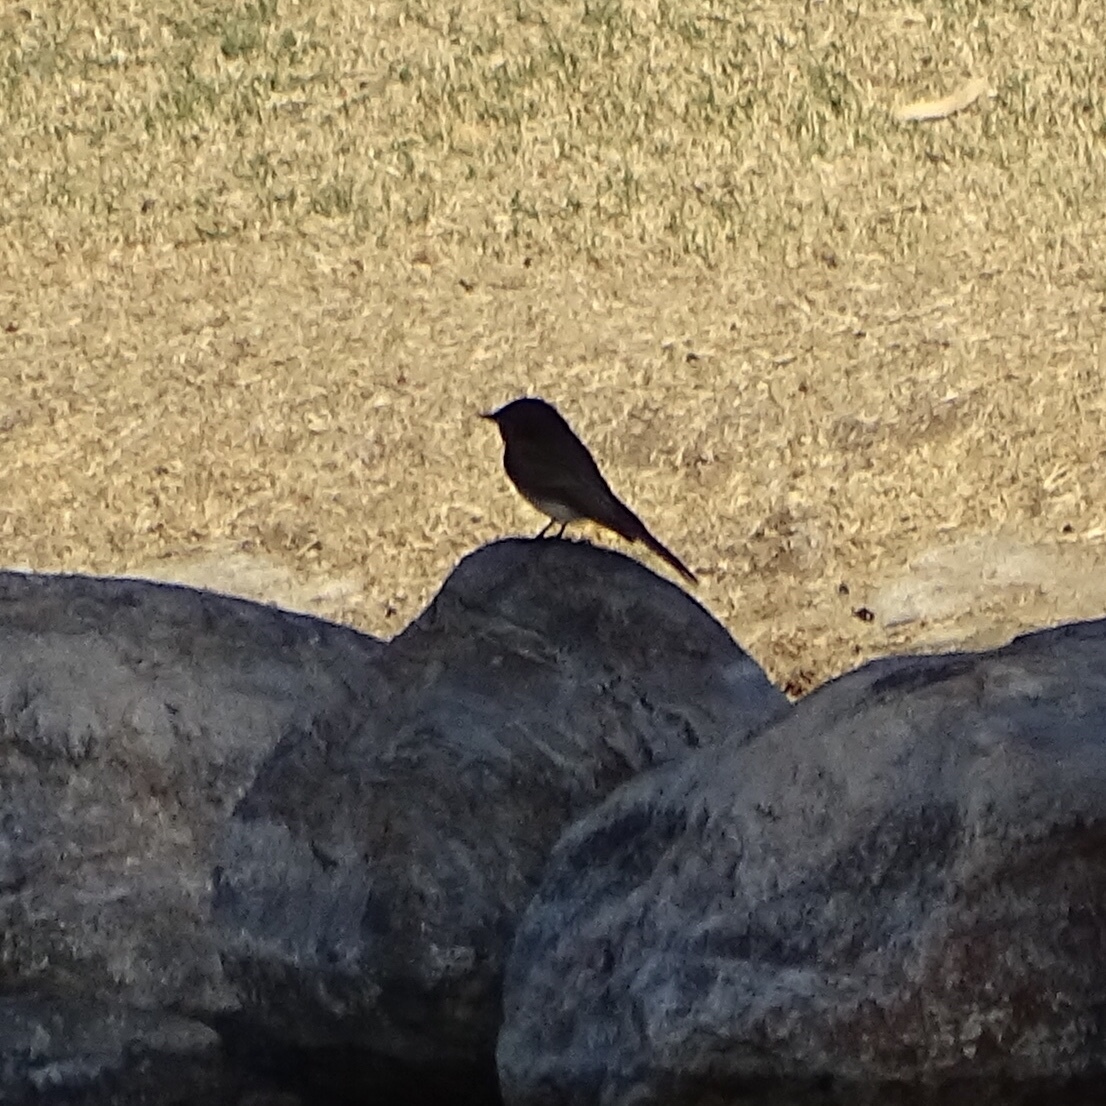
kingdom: Animalia
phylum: Chordata
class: Aves
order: Passeriformes
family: Tyrannidae
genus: Sayornis
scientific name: Sayornis nigricans
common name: Black phoebe
